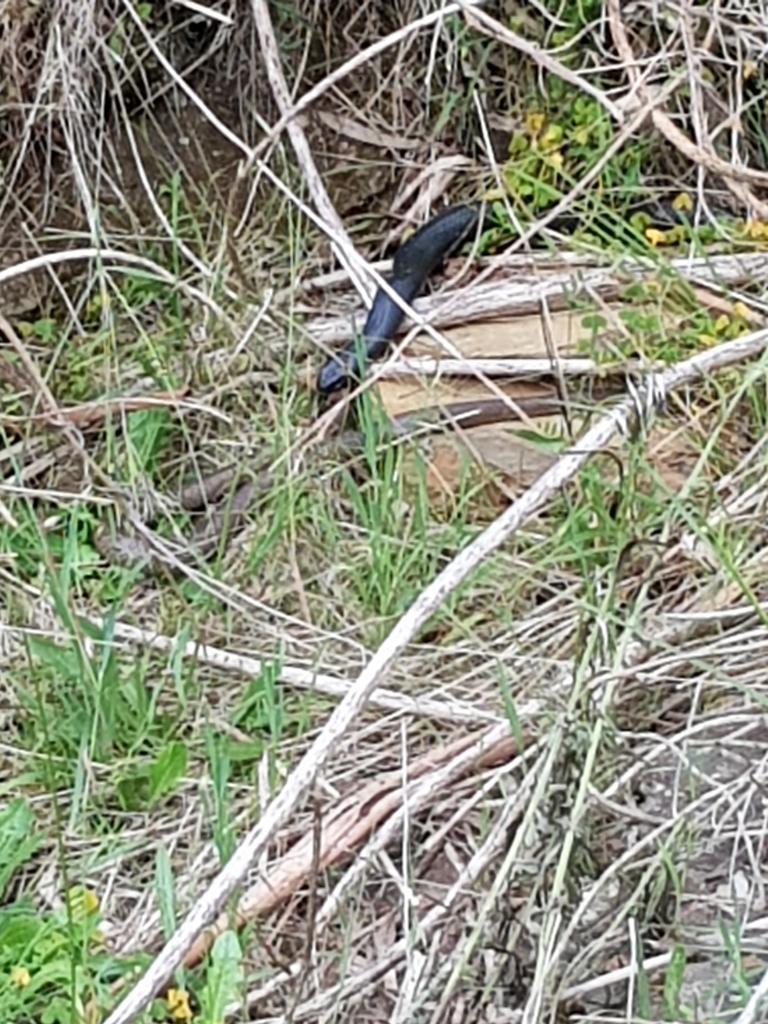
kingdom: Animalia
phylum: Chordata
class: Squamata
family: Elapidae
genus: Pseudechis
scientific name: Pseudechis porphyriacus
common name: Australian black snake
